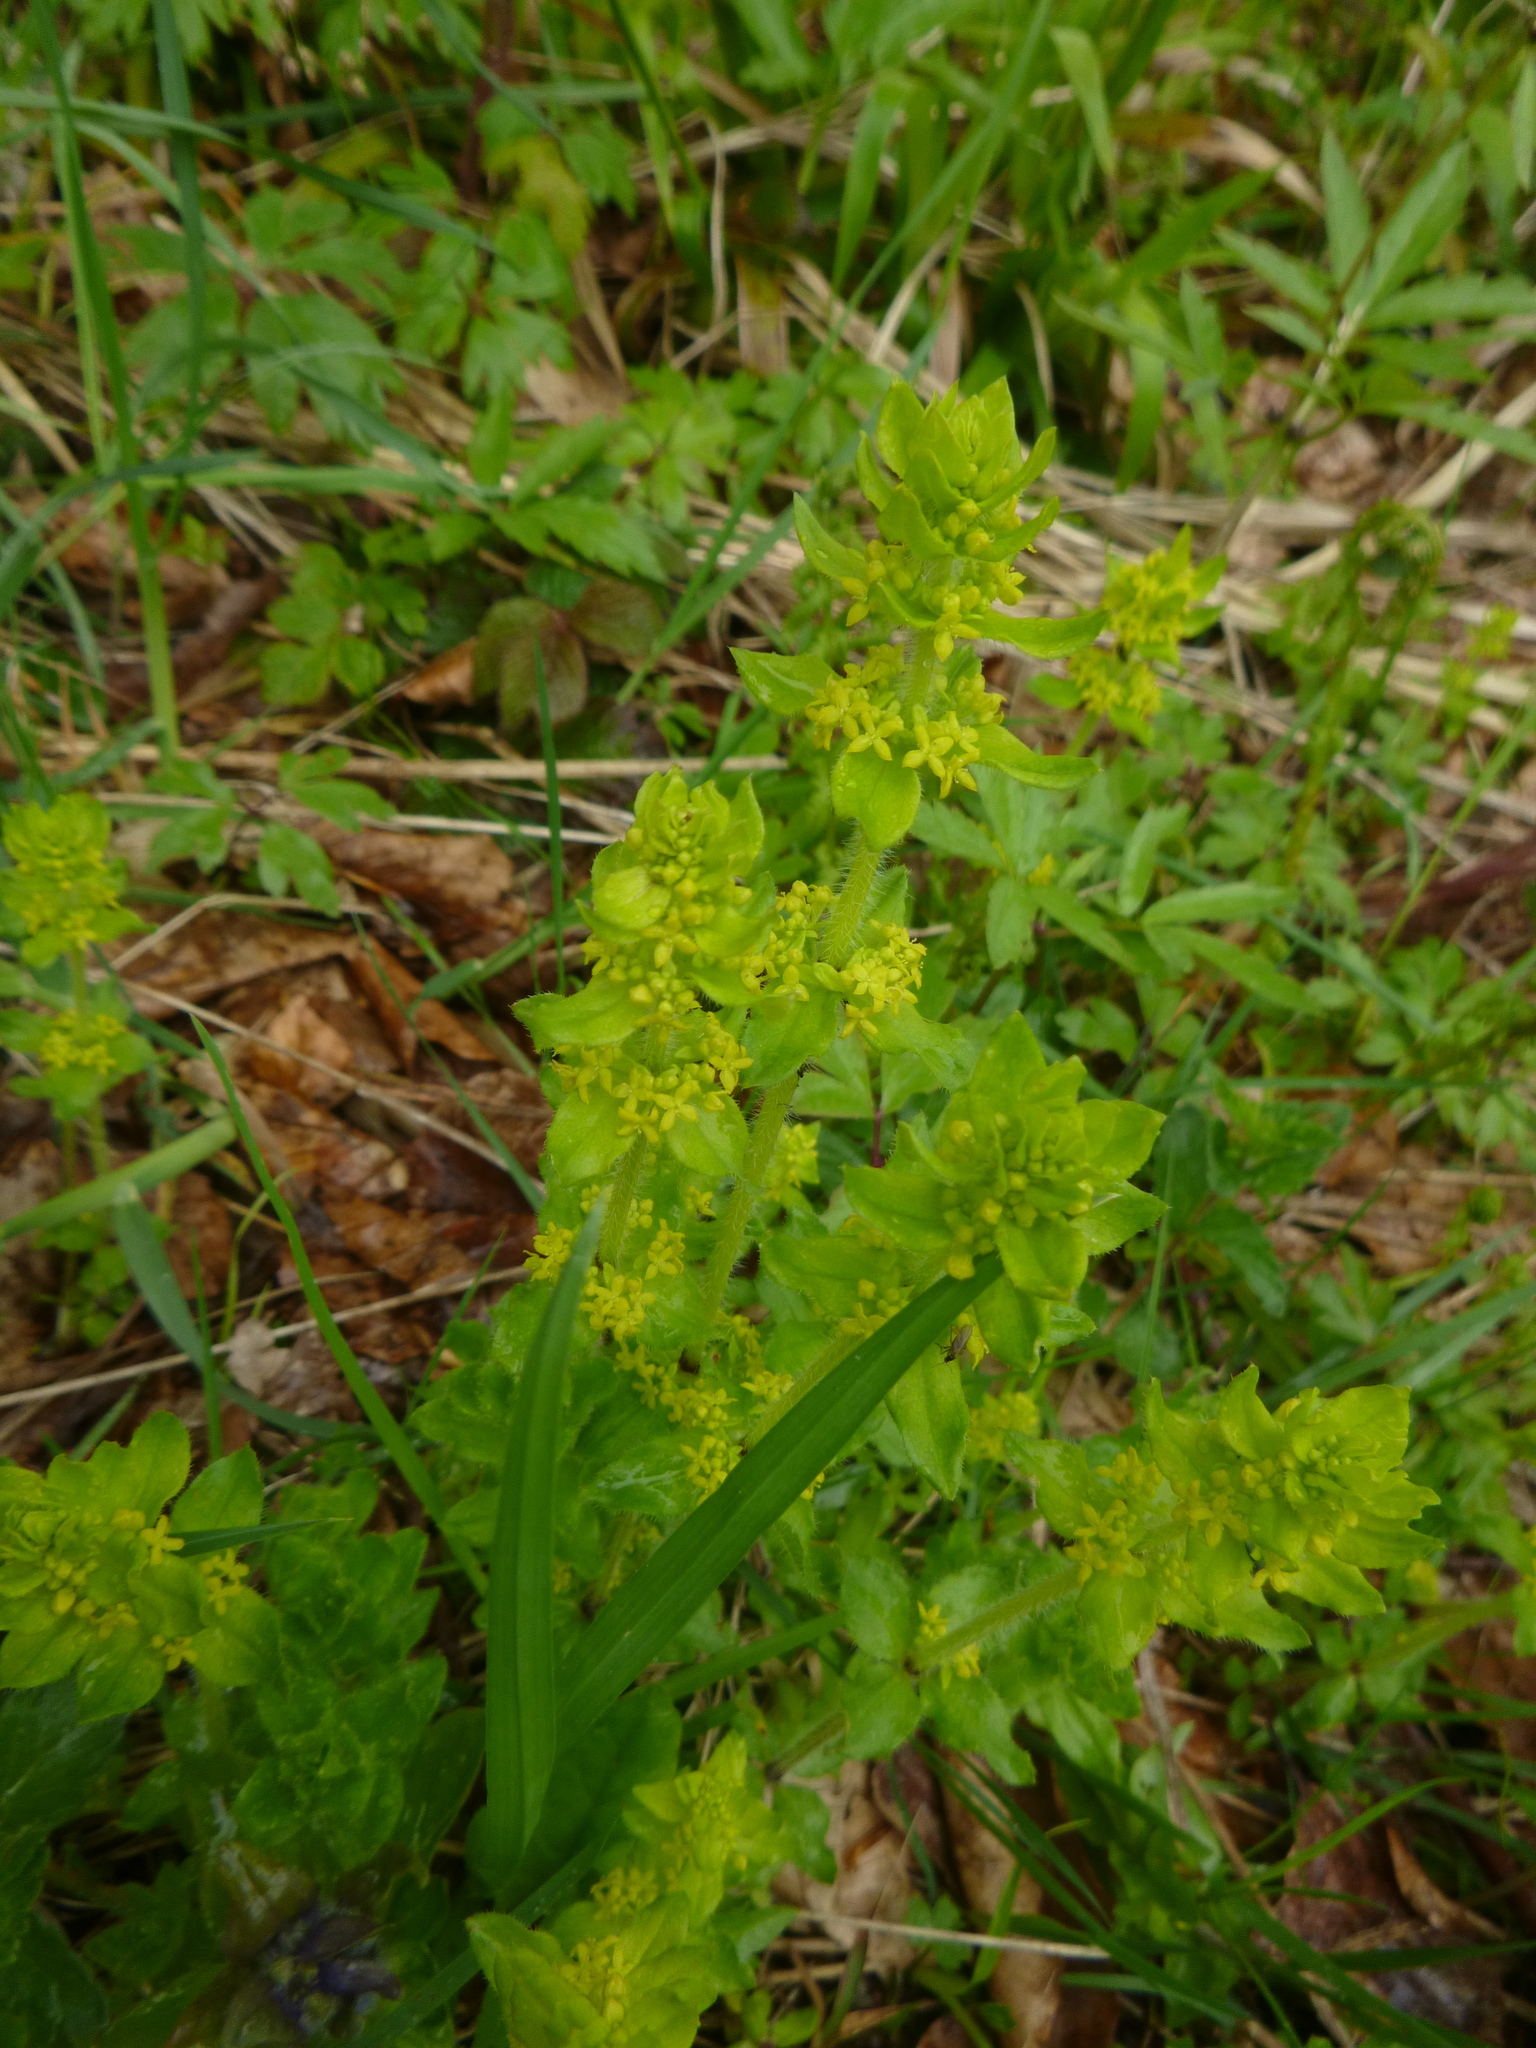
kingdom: Plantae
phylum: Tracheophyta
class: Magnoliopsida
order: Gentianales
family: Rubiaceae
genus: Cruciata
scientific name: Cruciata laevipes
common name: Crosswort
